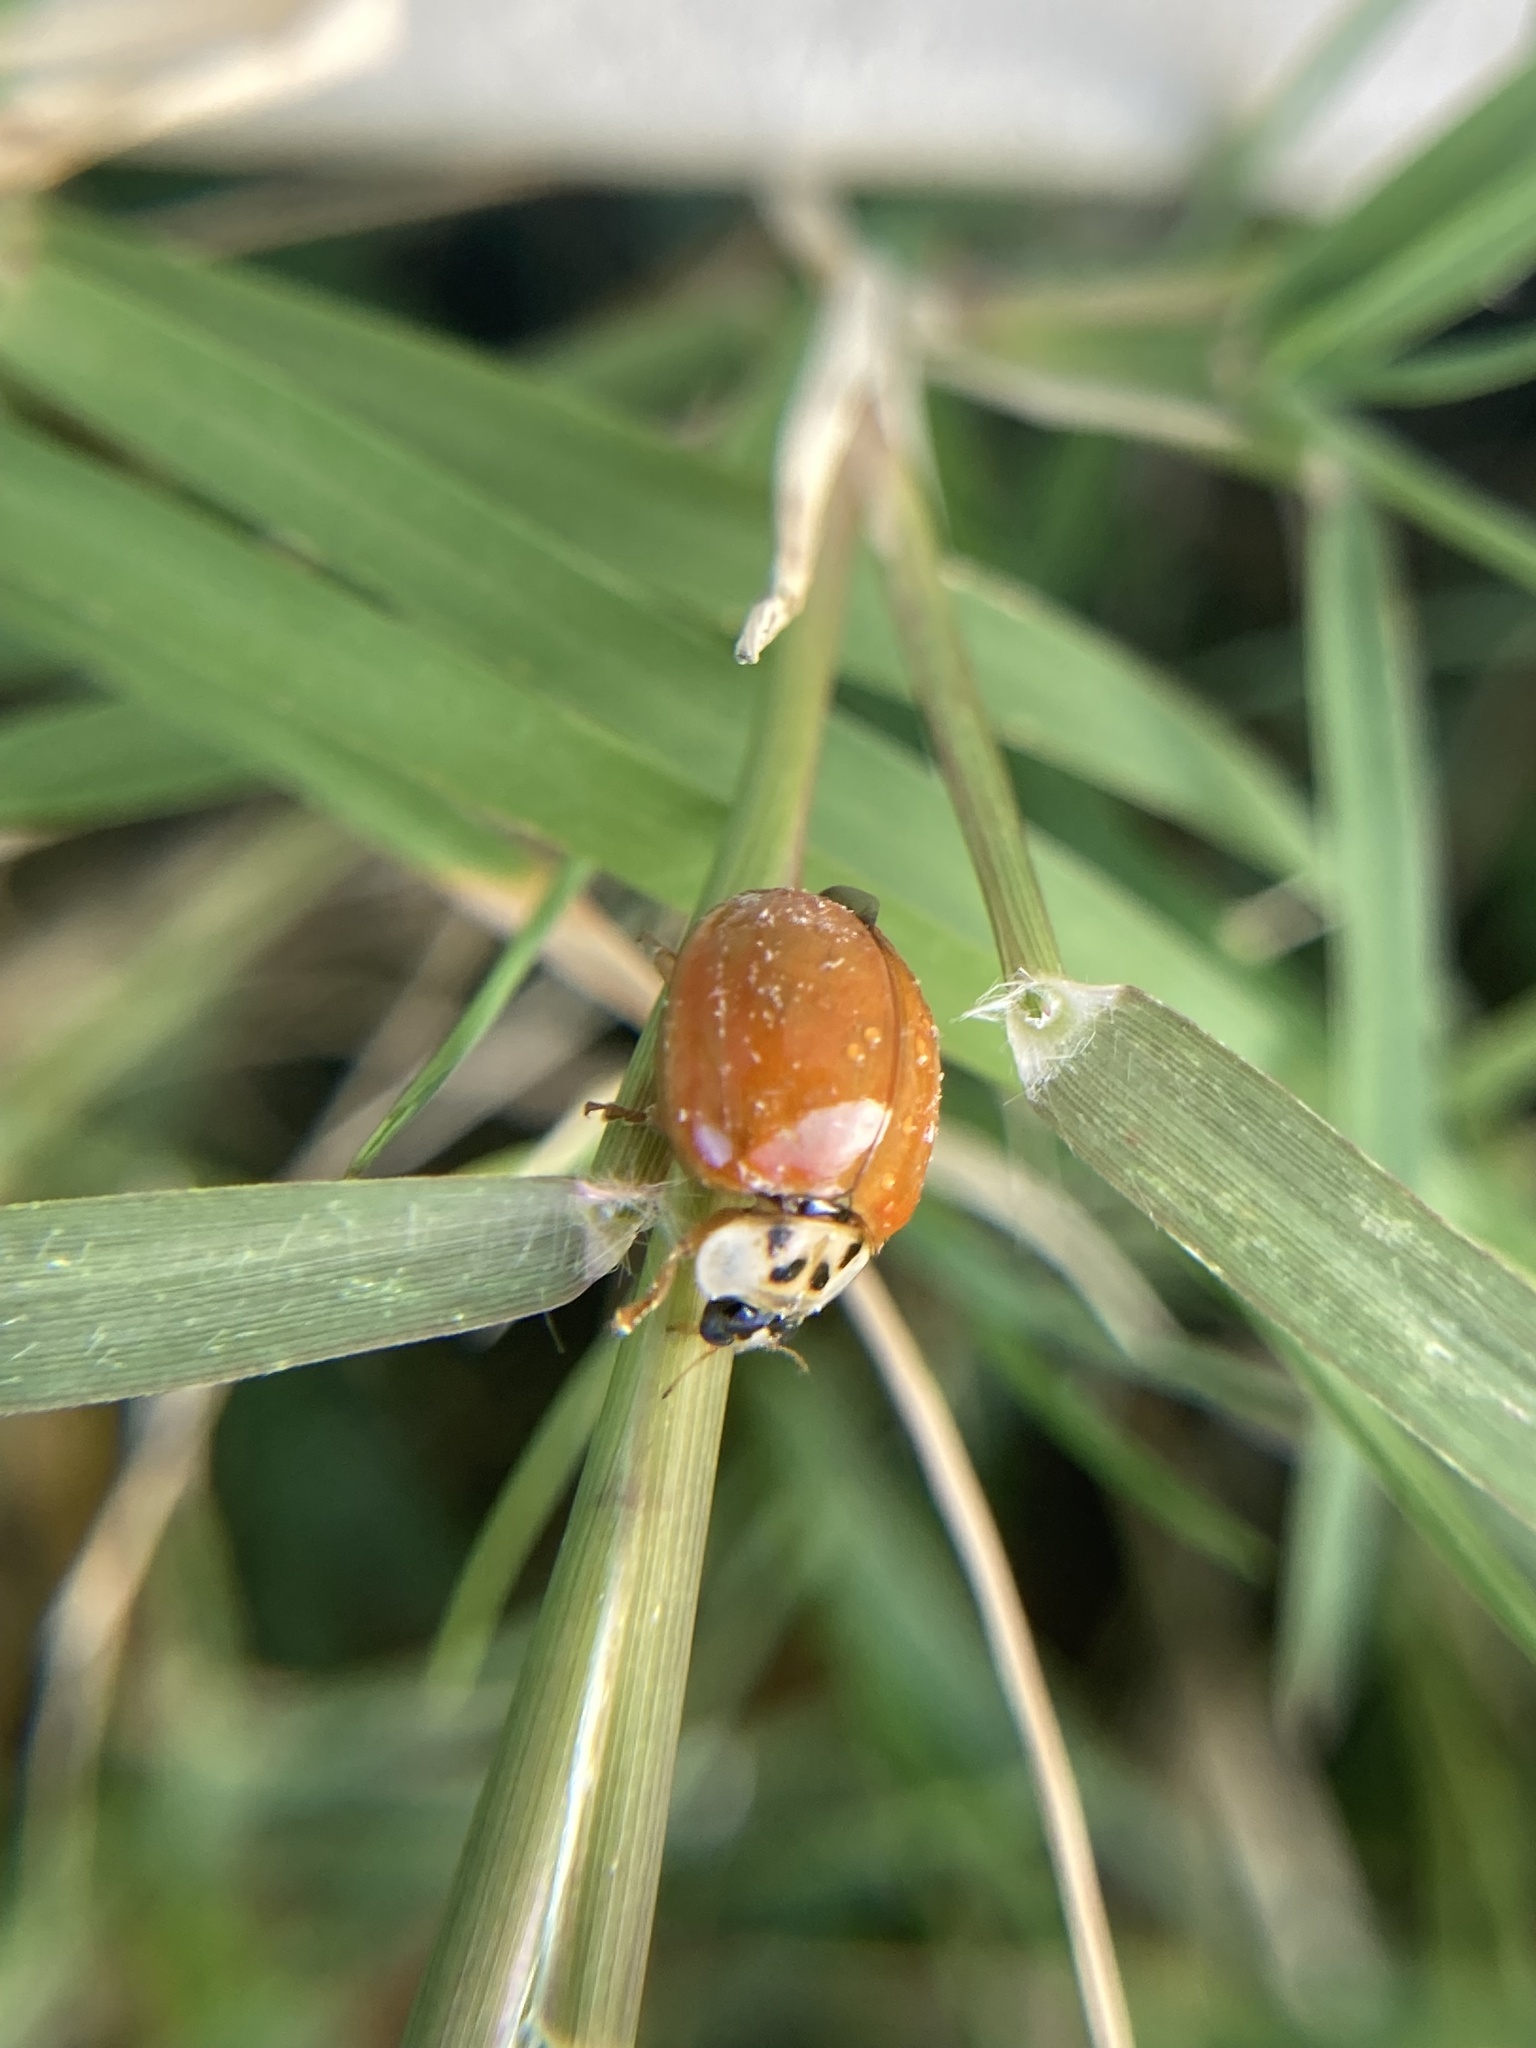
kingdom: Animalia
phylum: Arthropoda
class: Insecta
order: Coleoptera
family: Coccinellidae
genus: Harmonia
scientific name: Harmonia axyridis
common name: Harlequin ladybird
